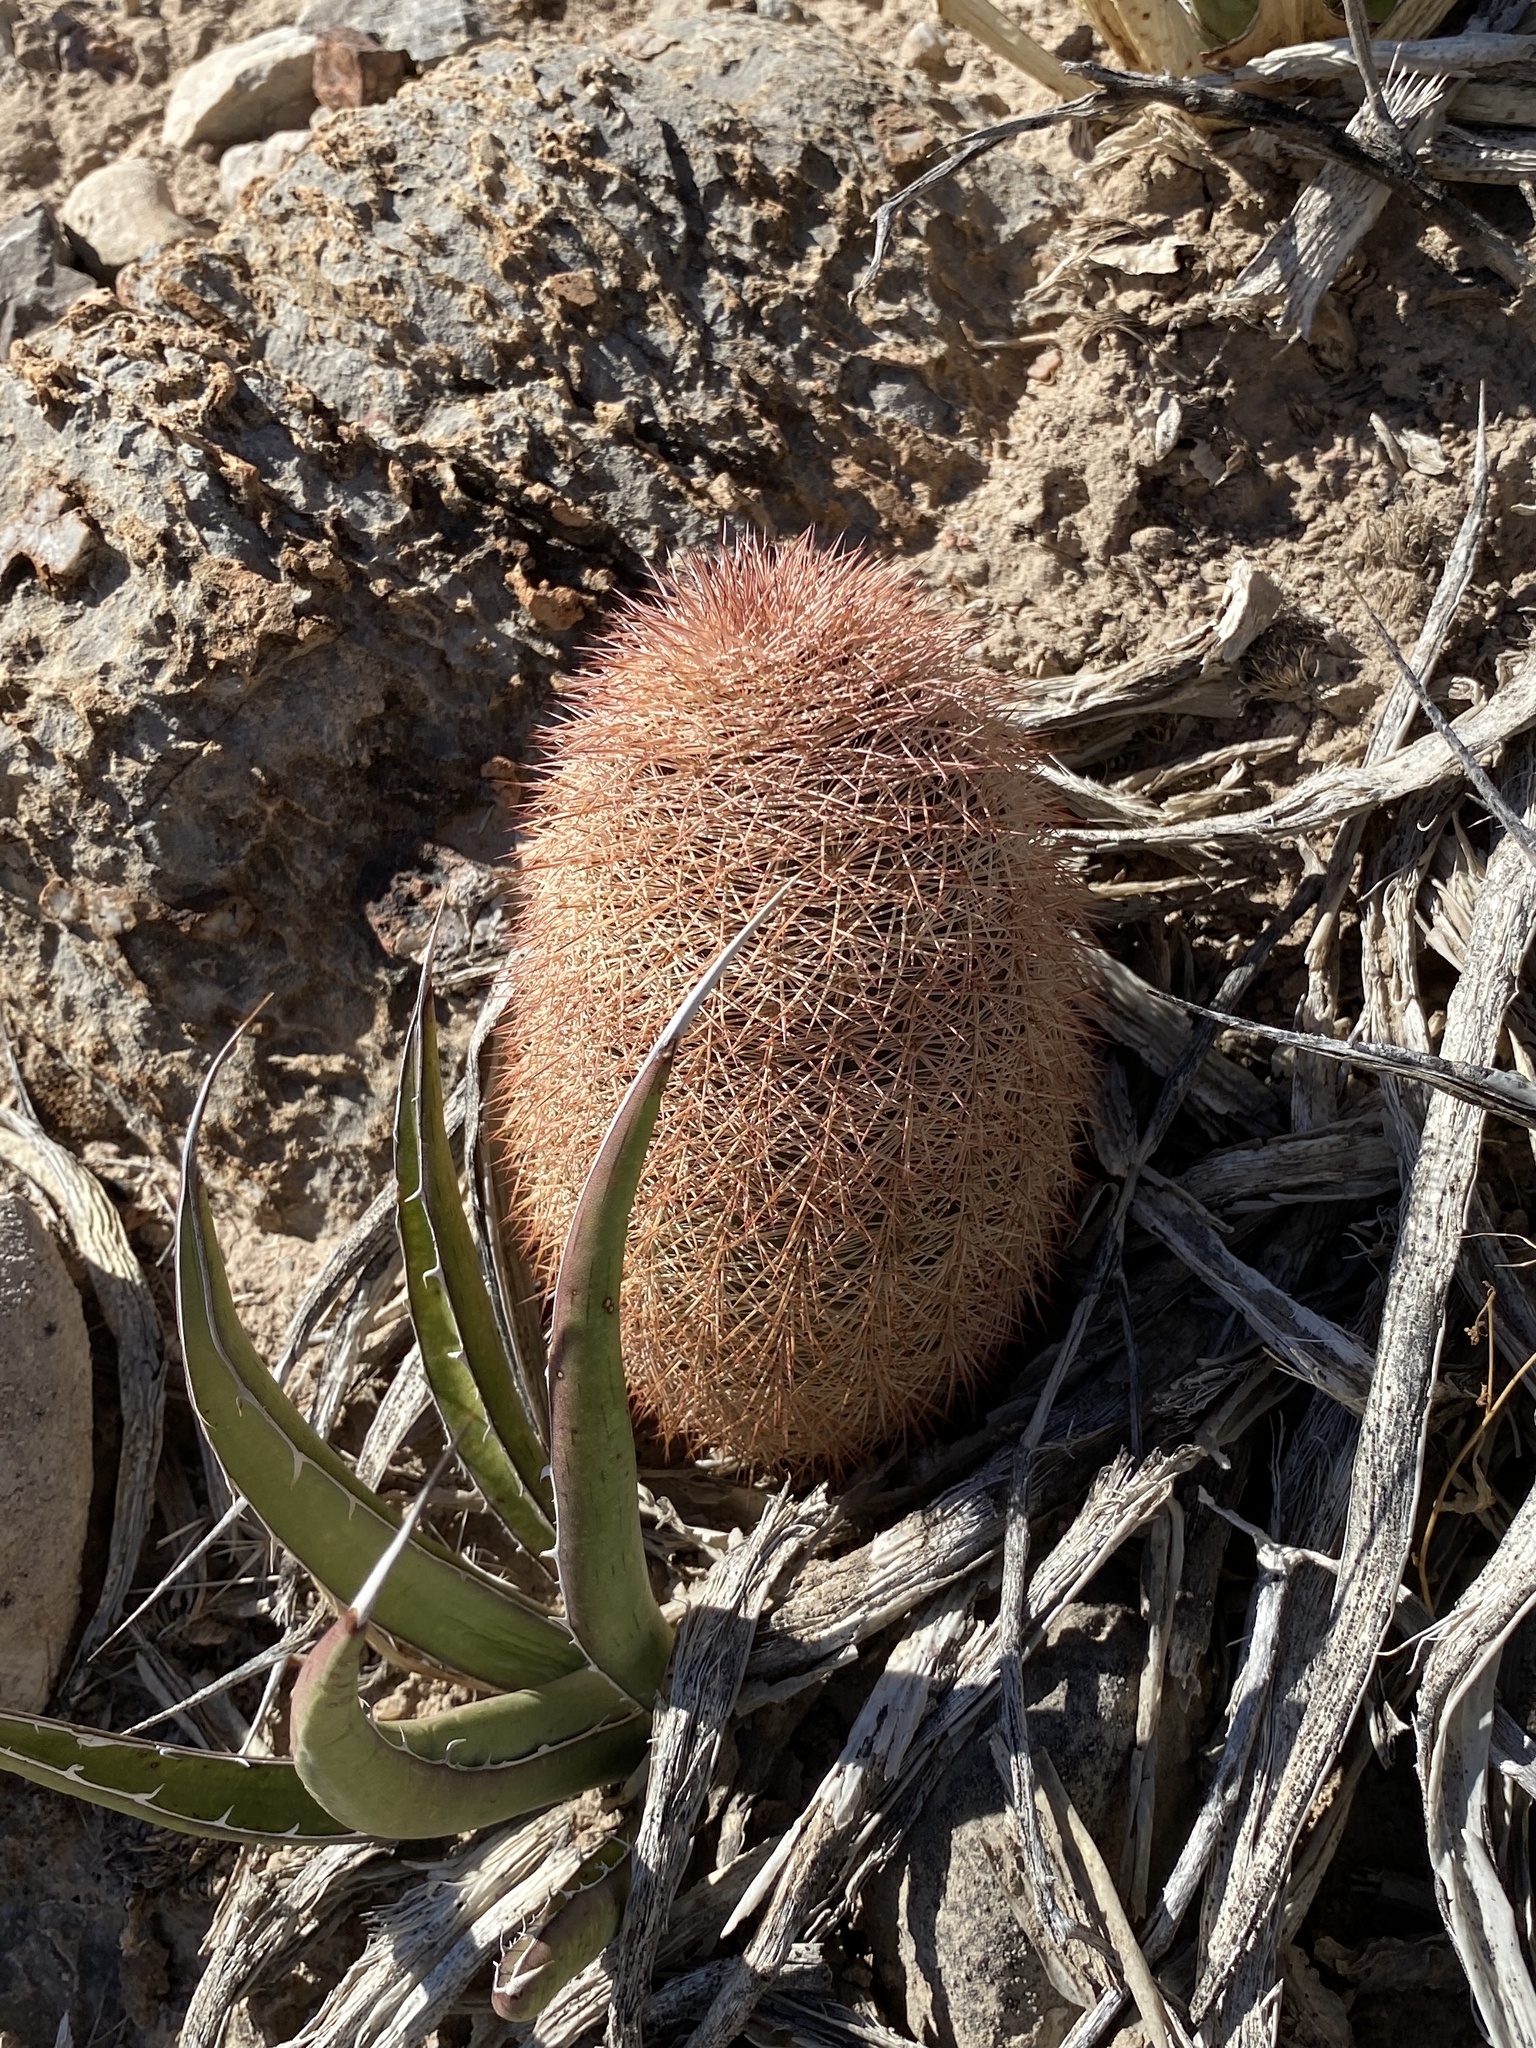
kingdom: Plantae
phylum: Tracheophyta
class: Magnoliopsida
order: Caryophyllales
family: Cactaceae
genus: Echinocereus
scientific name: Echinocereus dasyacanthus
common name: Spiny hedgehog cactus
